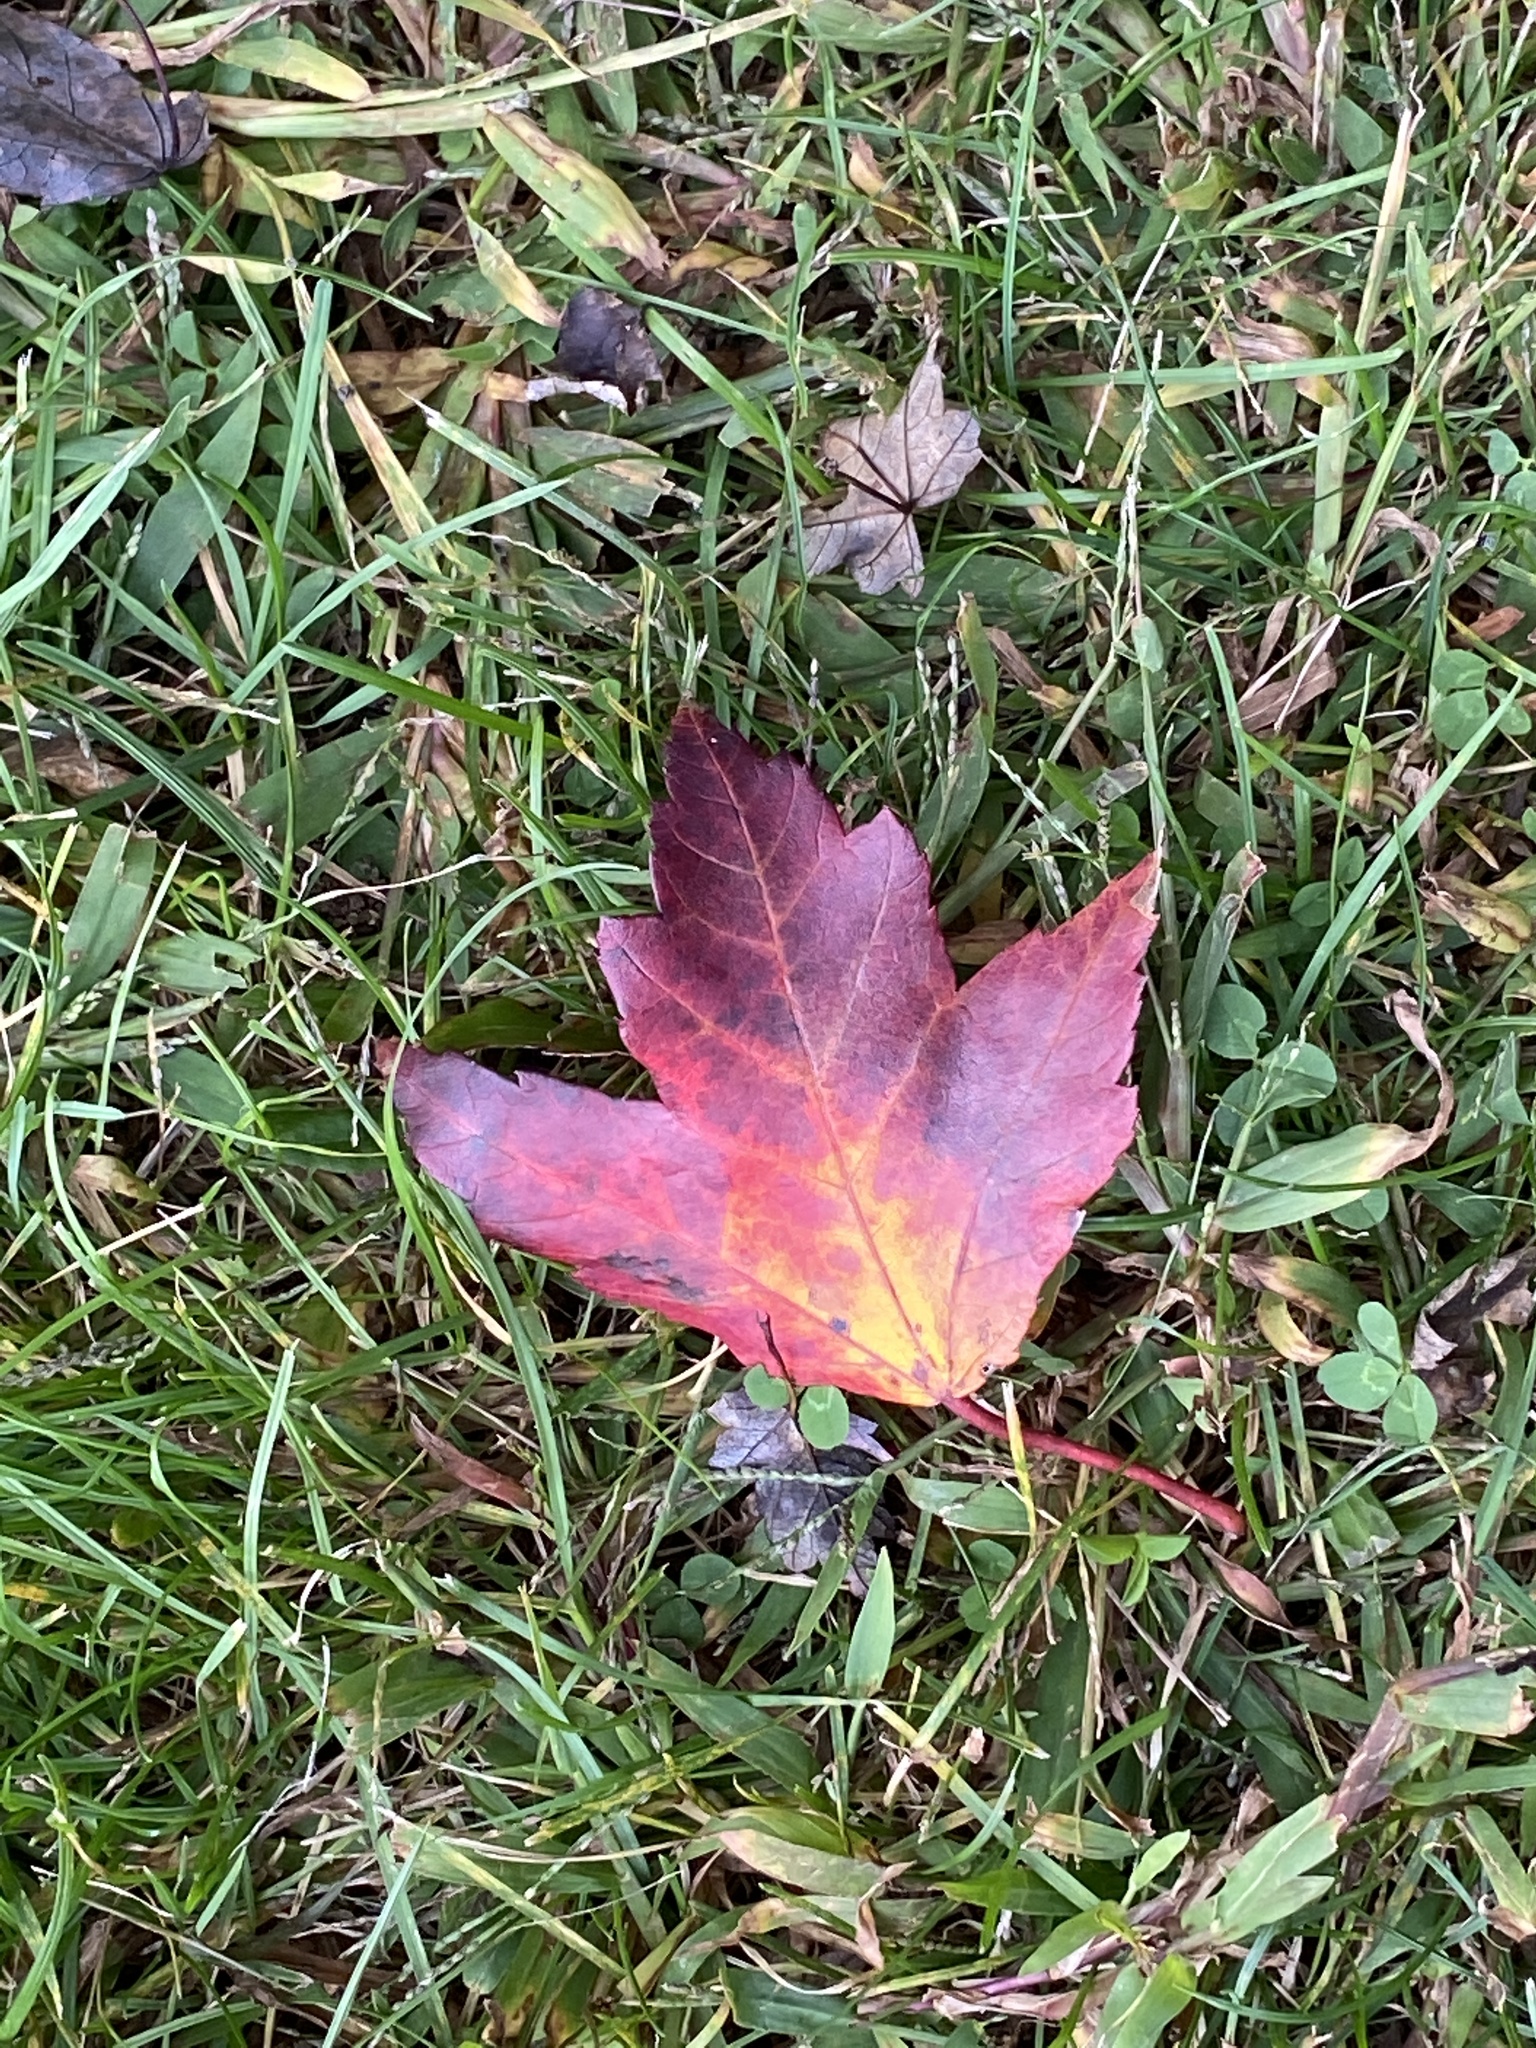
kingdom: Plantae
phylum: Tracheophyta
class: Magnoliopsida
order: Sapindales
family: Sapindaceae
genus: Acer
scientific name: Acer rubrum
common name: Red maple
